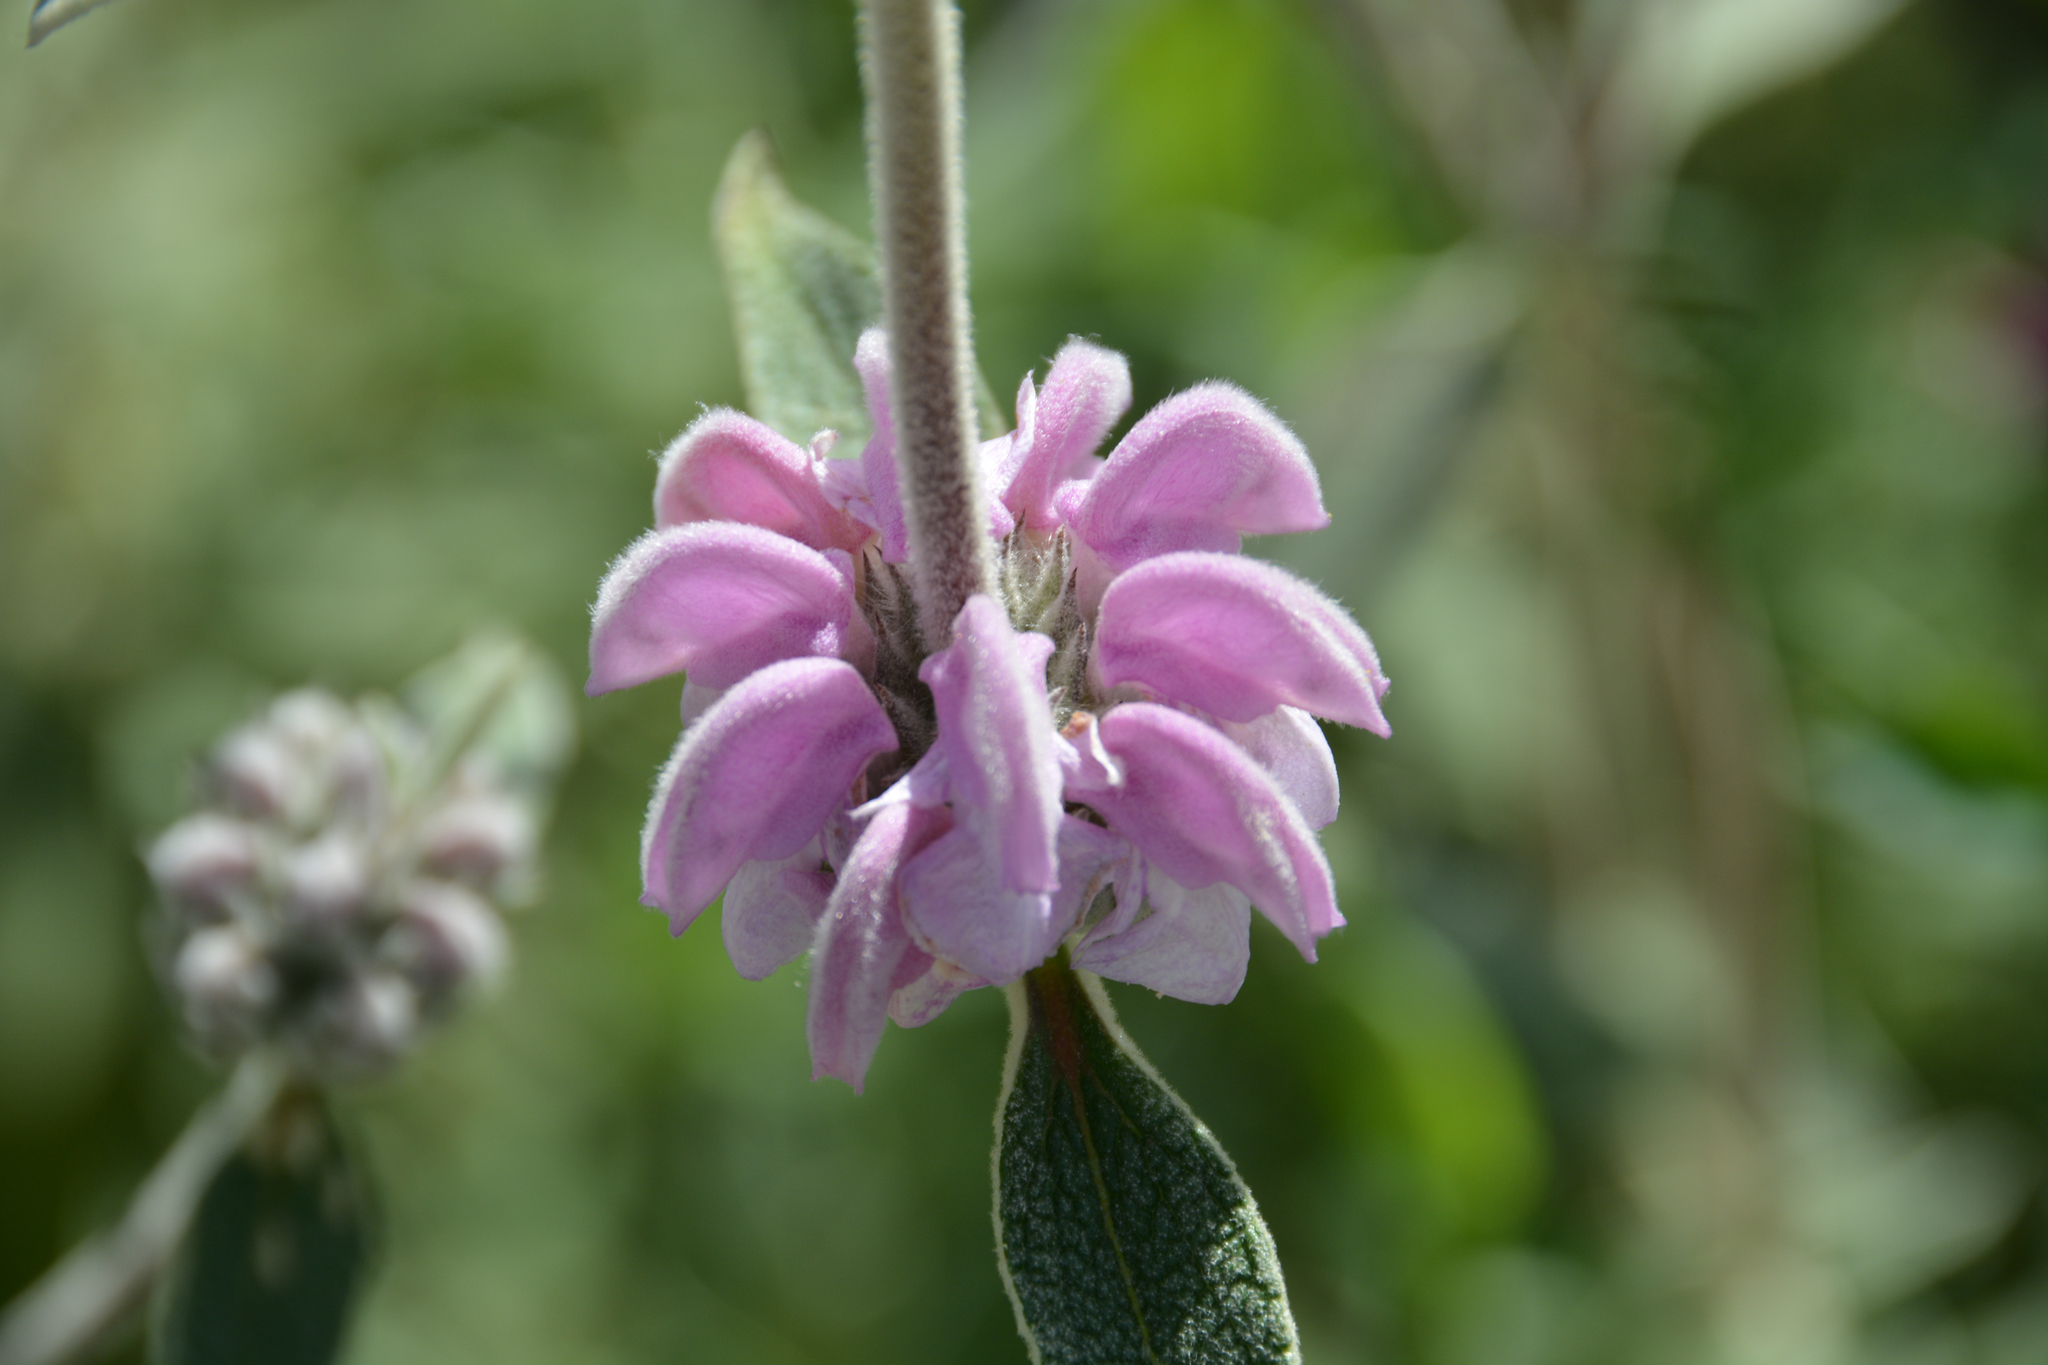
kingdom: Plantae
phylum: Tracheophyta
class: Magnoliopsida
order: Lamiales
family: Lamiaceae
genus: Phlomis
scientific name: Phlomis purpurea
